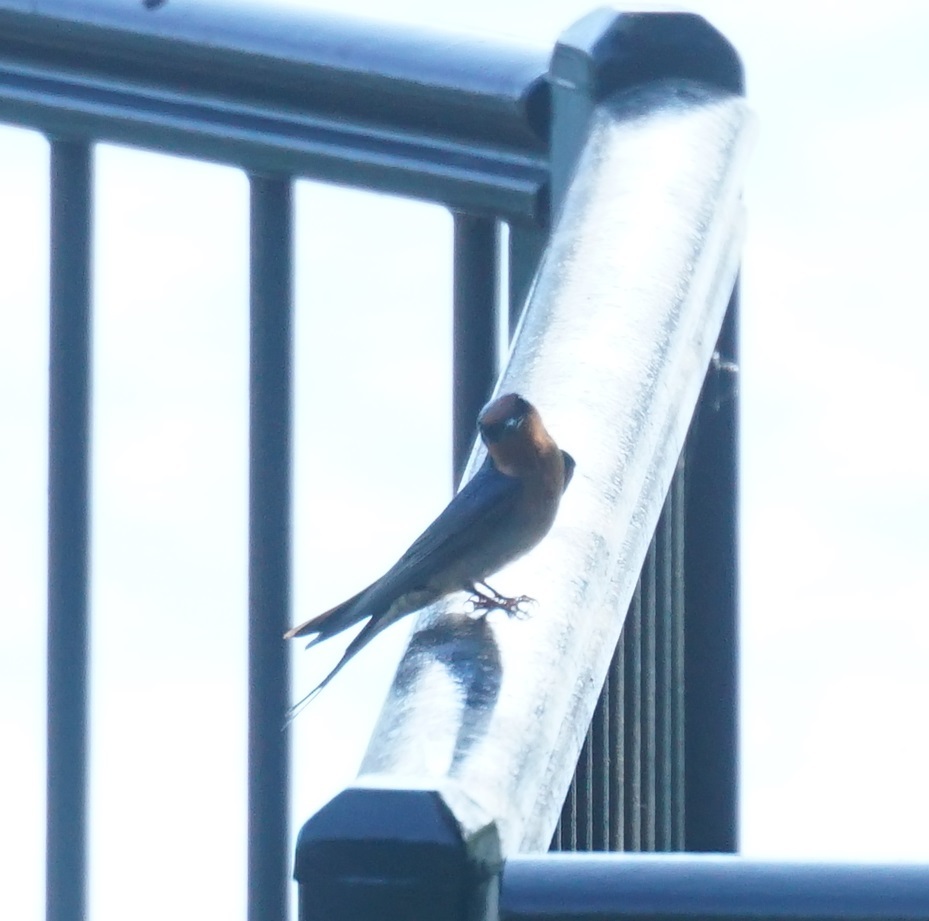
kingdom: Animalia
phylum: Chordata
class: Aves
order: Passeriformes
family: Hirundinidae
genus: Hirundo
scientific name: Hirundo neoxena
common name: Welcome swallow
